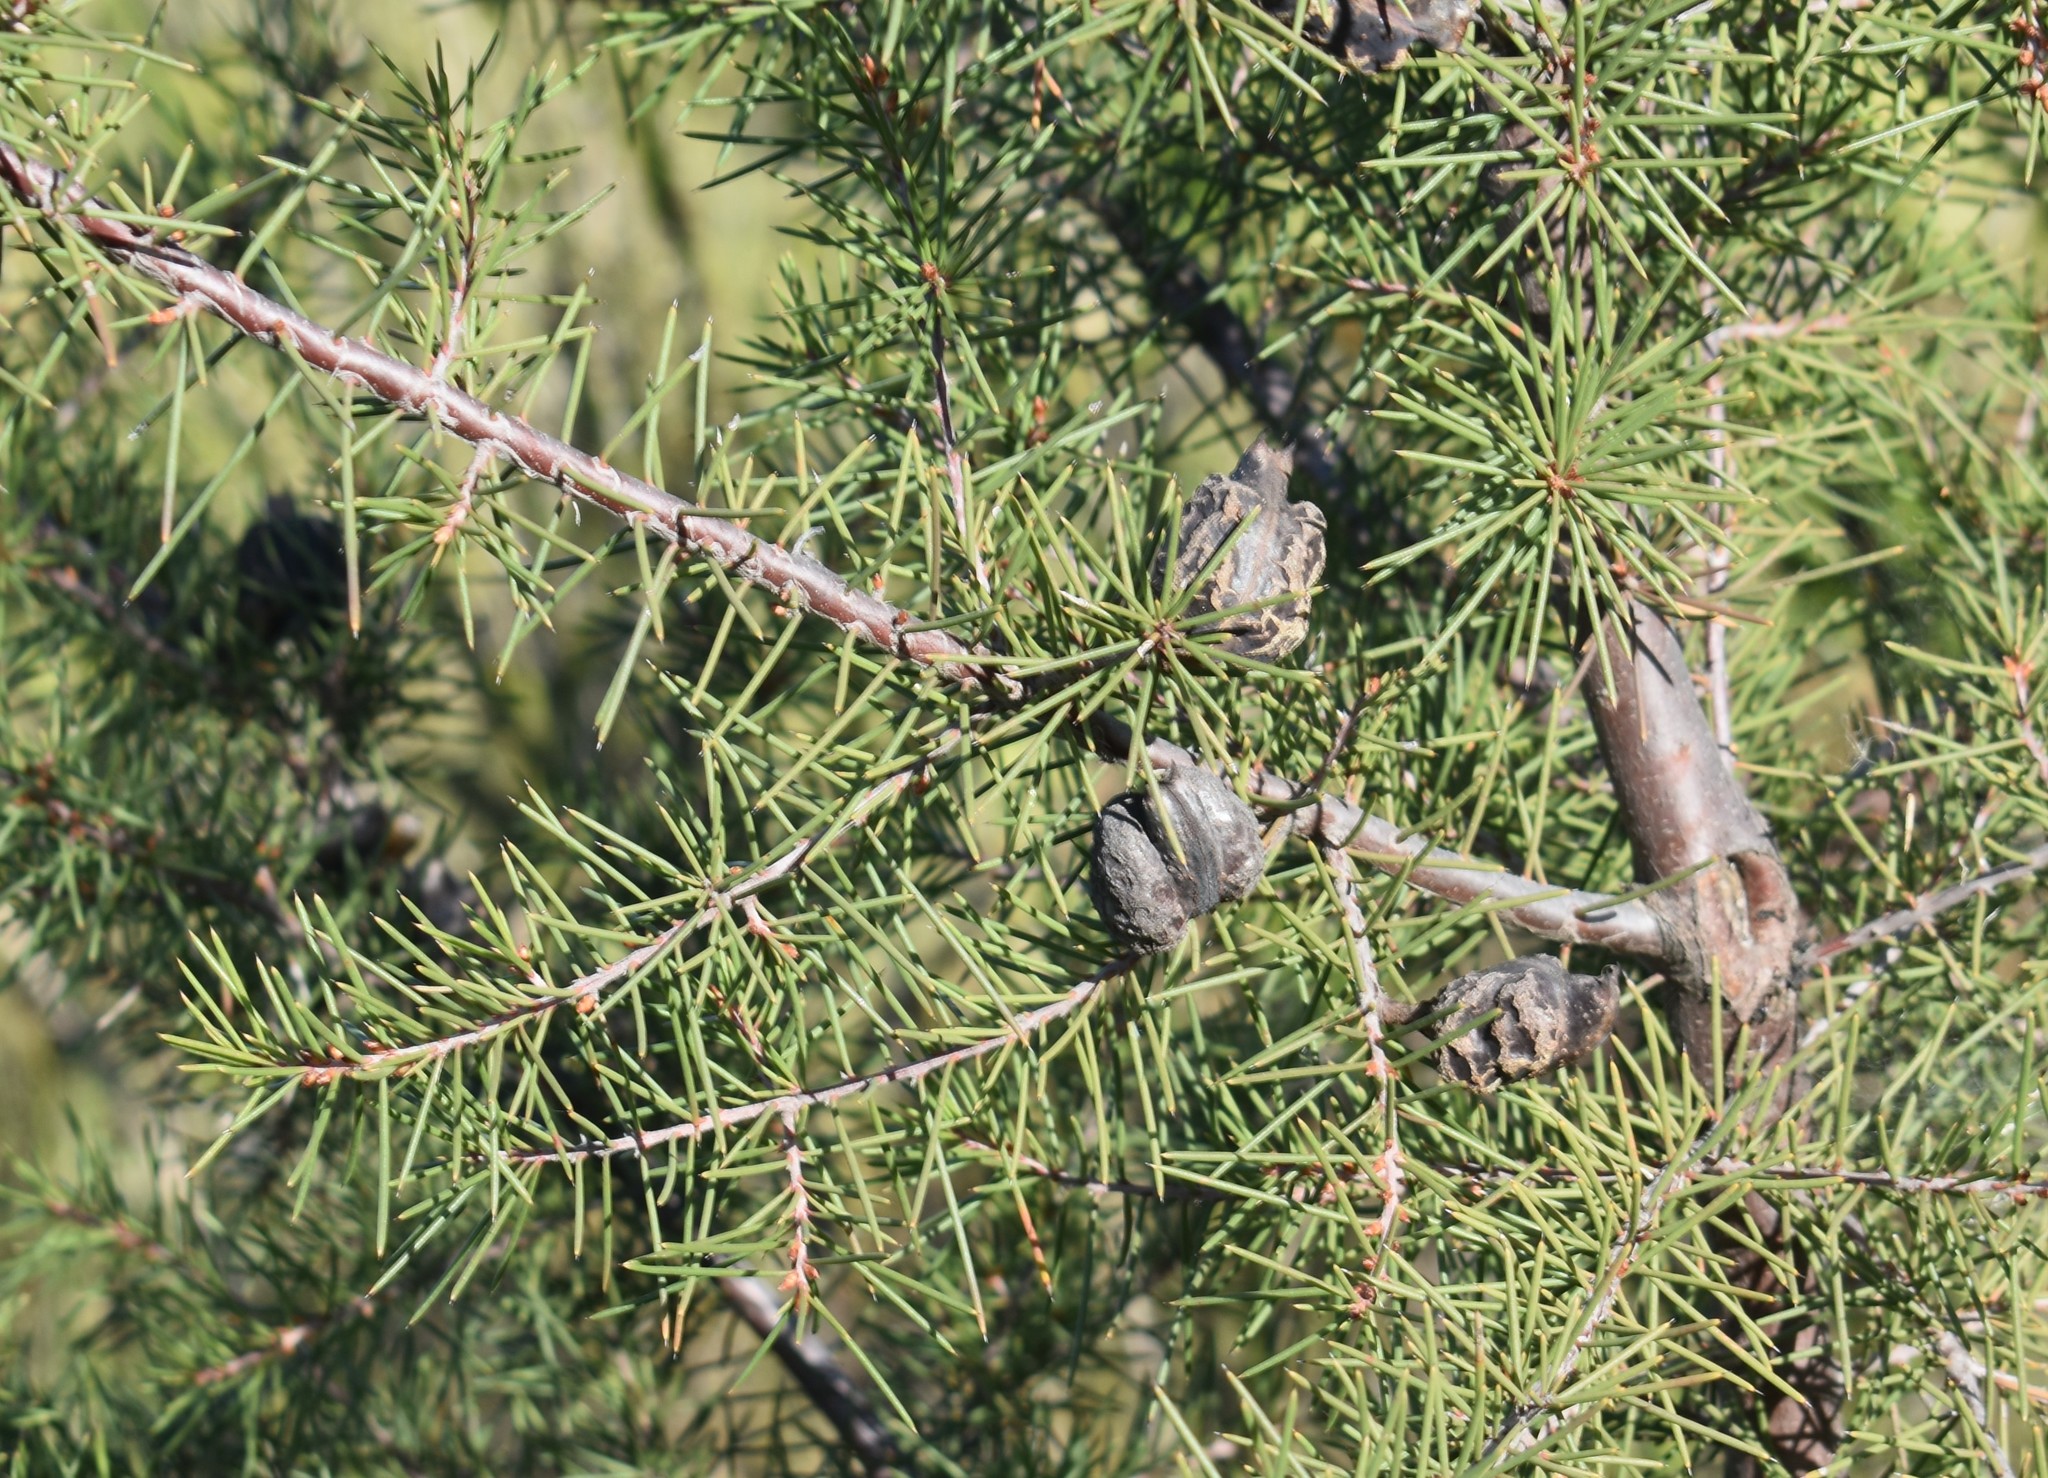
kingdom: Plantae
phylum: Tracheophyta
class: Magnoliopsida
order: Proteales
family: Proteaceae
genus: Hakea
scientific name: Hakea sericea
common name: Needle bush
